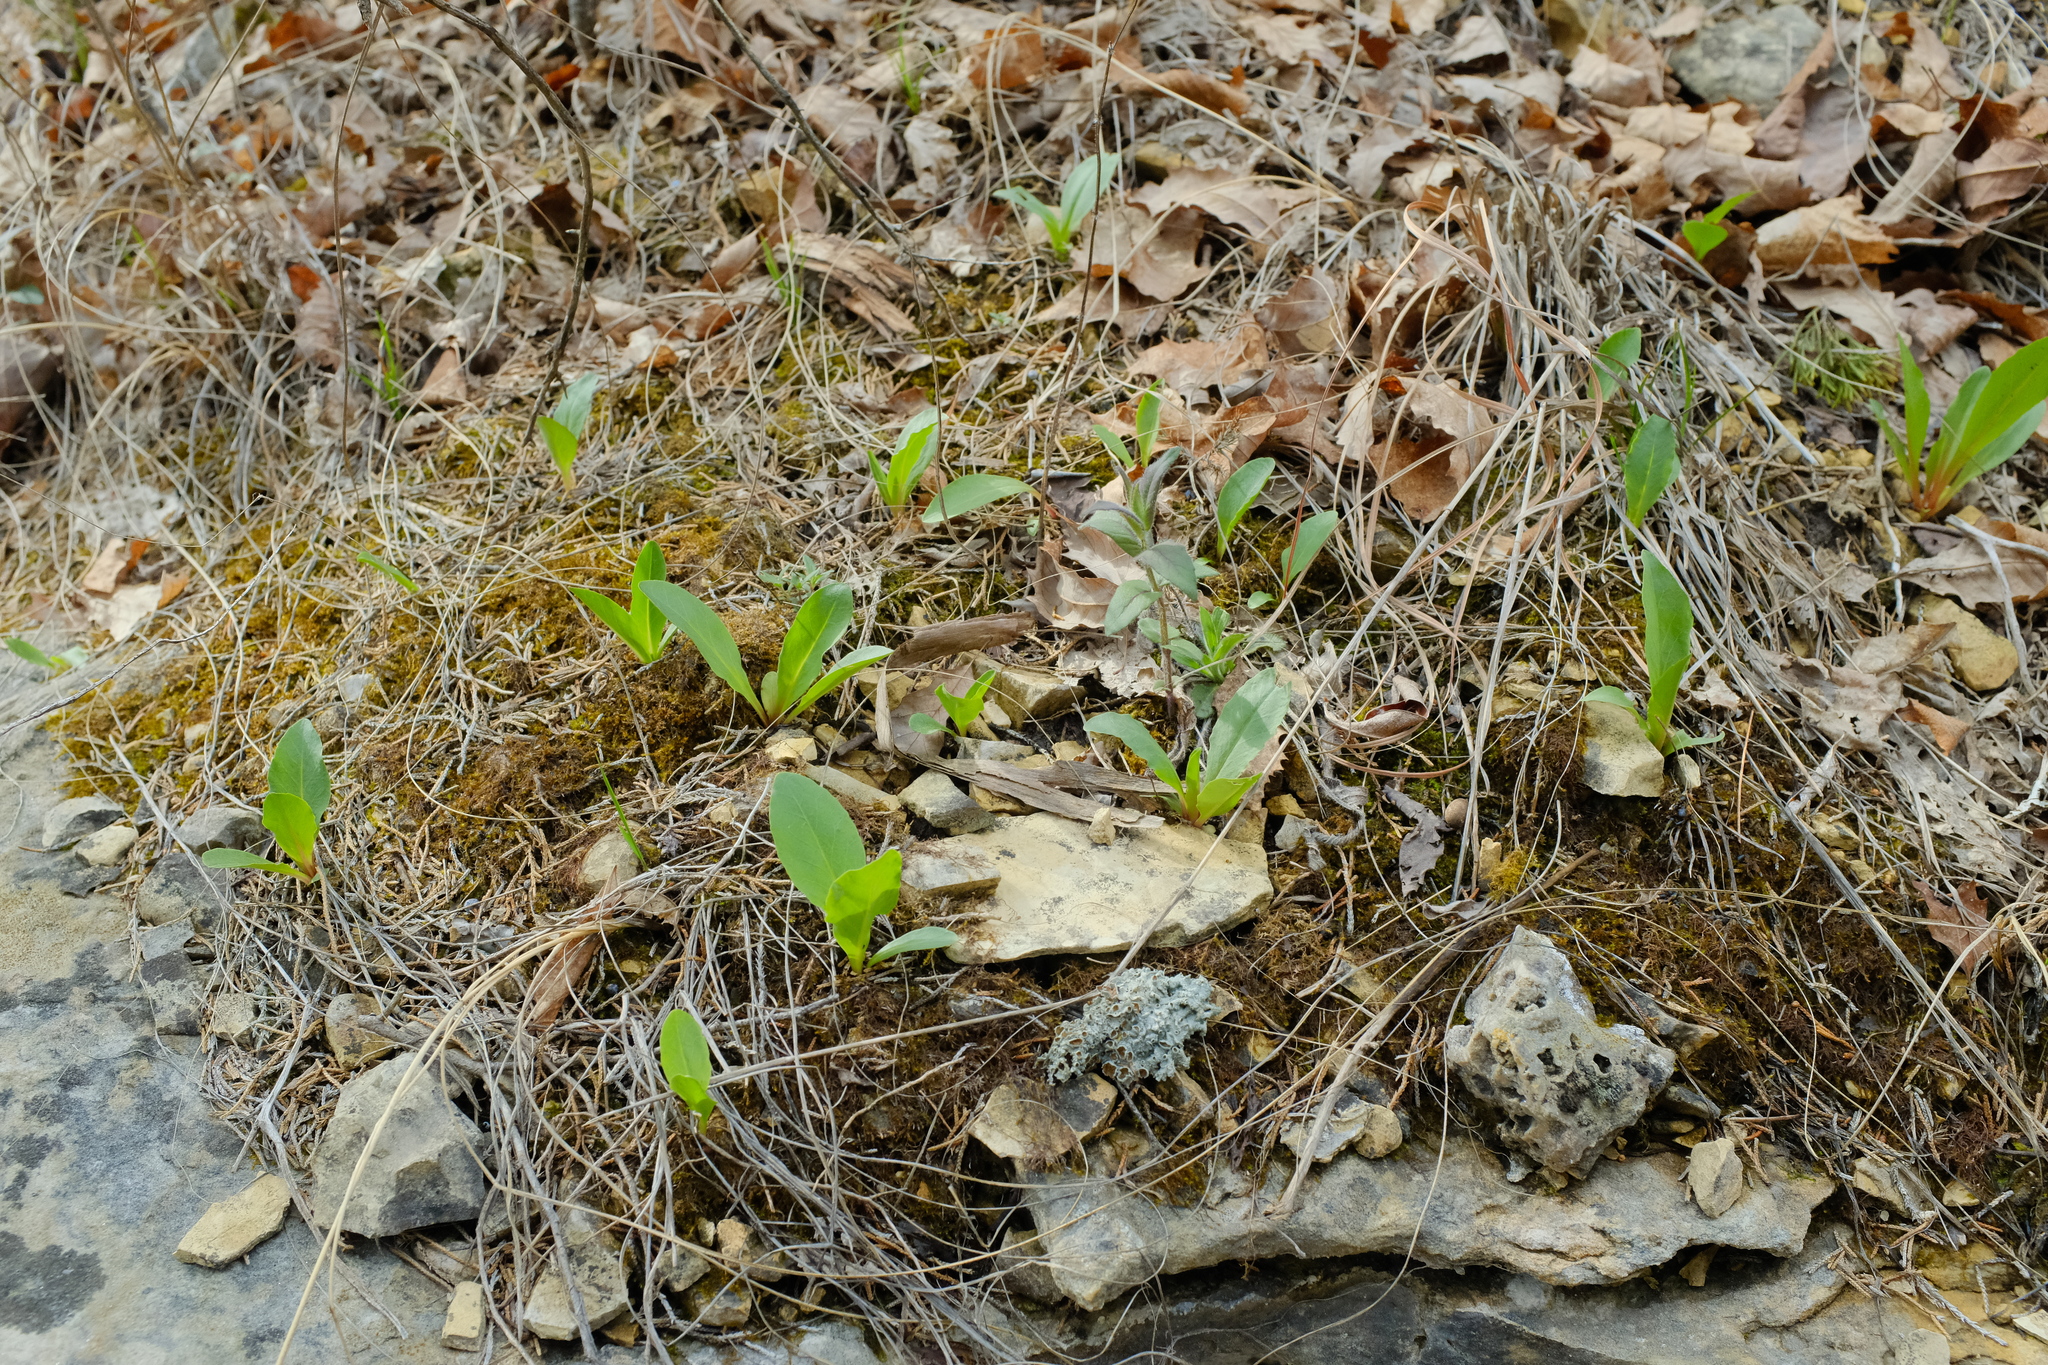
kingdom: Plantae
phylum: Tracheophyta
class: Magnoliopsida
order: Ericales
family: Primulaceae
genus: Dodecatheon
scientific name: Dodecatheon meadia
